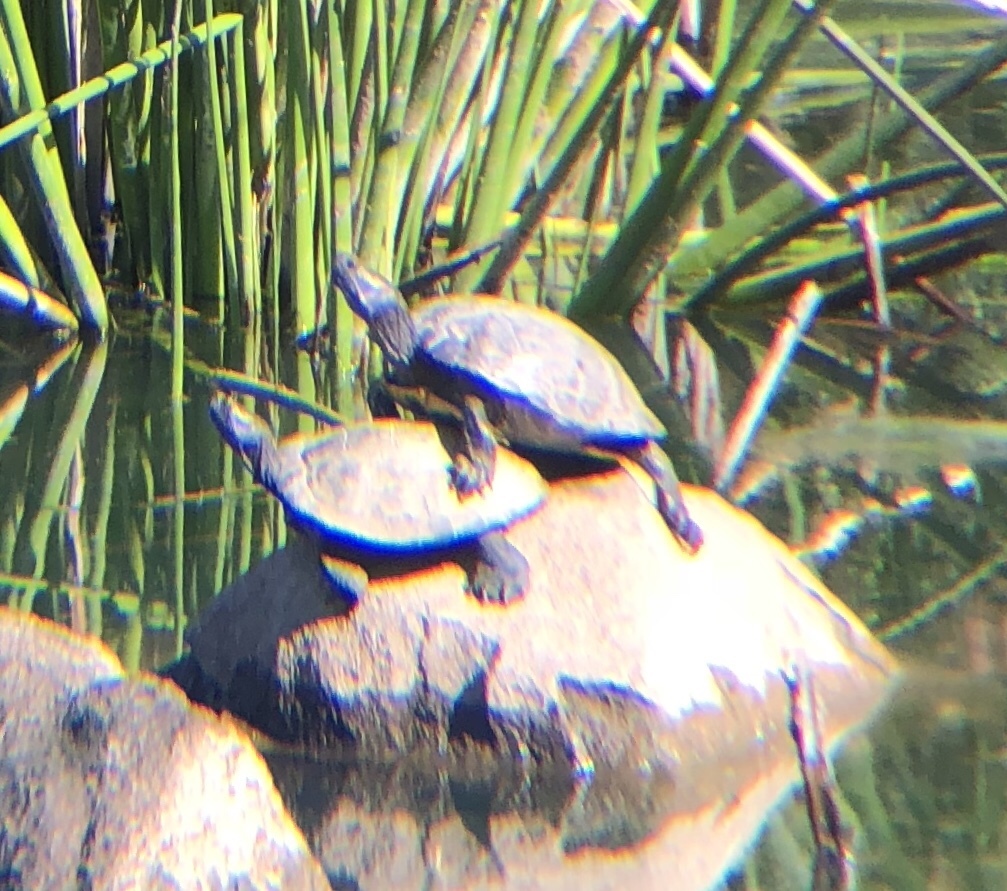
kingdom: Animalia
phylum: Chordata
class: Testudines
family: Emydidae
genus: Trachemys
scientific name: Trachemys scripta
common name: Slider
